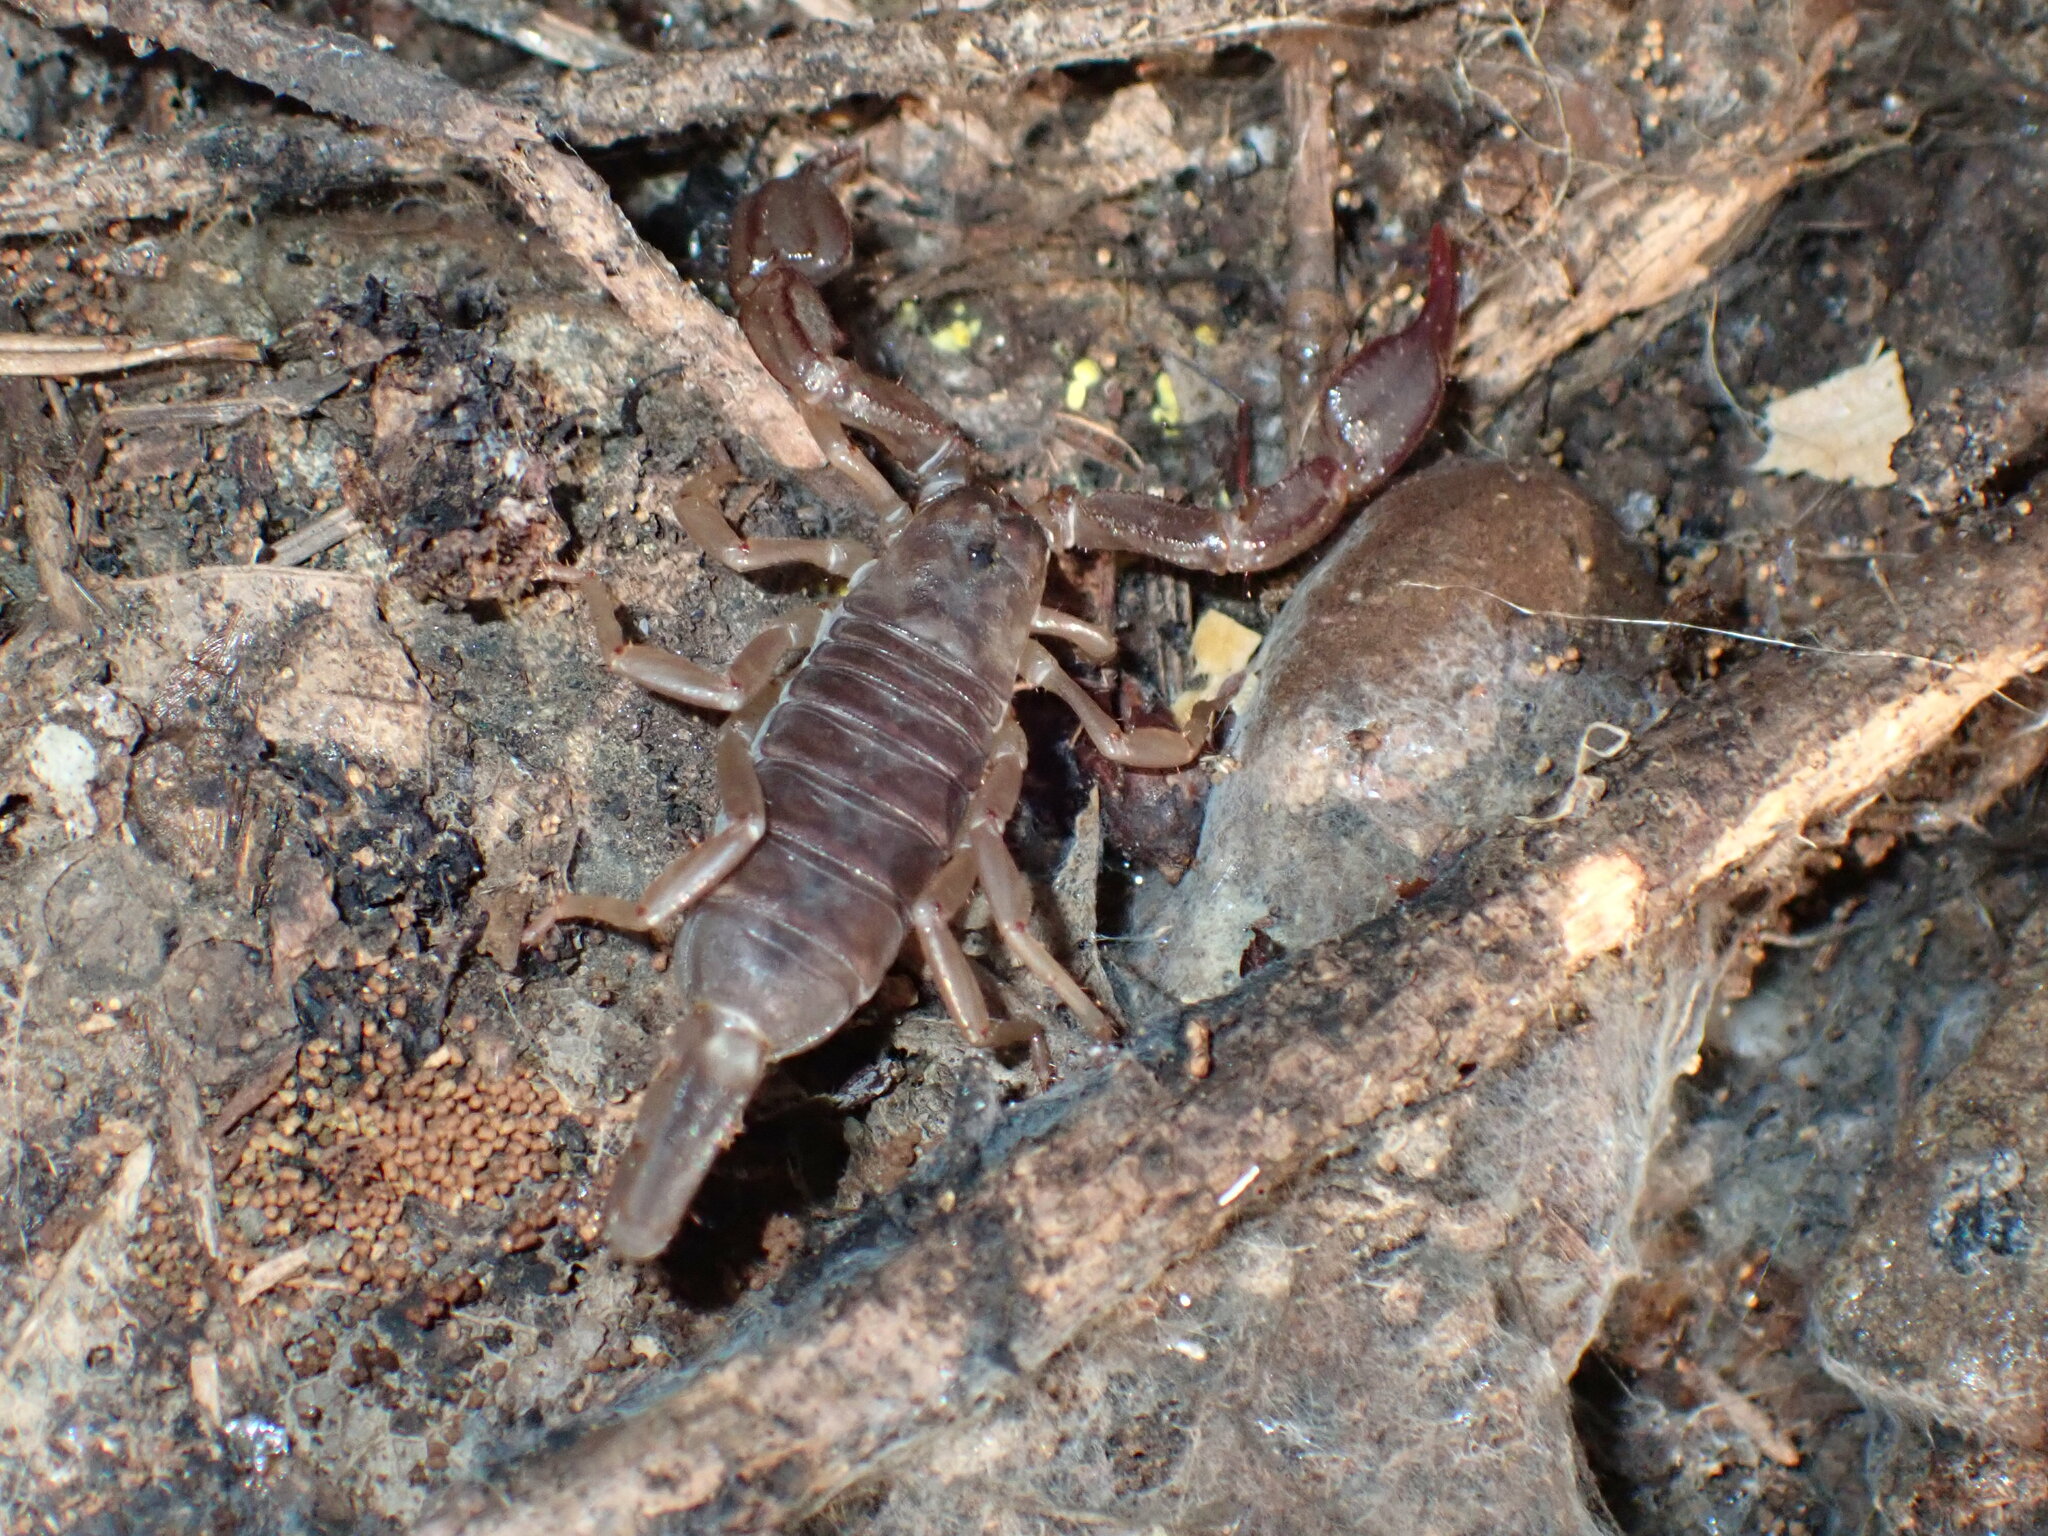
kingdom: Animalia
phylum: Arthropoda
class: Arachnida
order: Scorpiones
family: Chactidae
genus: Uroctonus
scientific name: Uroctonus mordax
